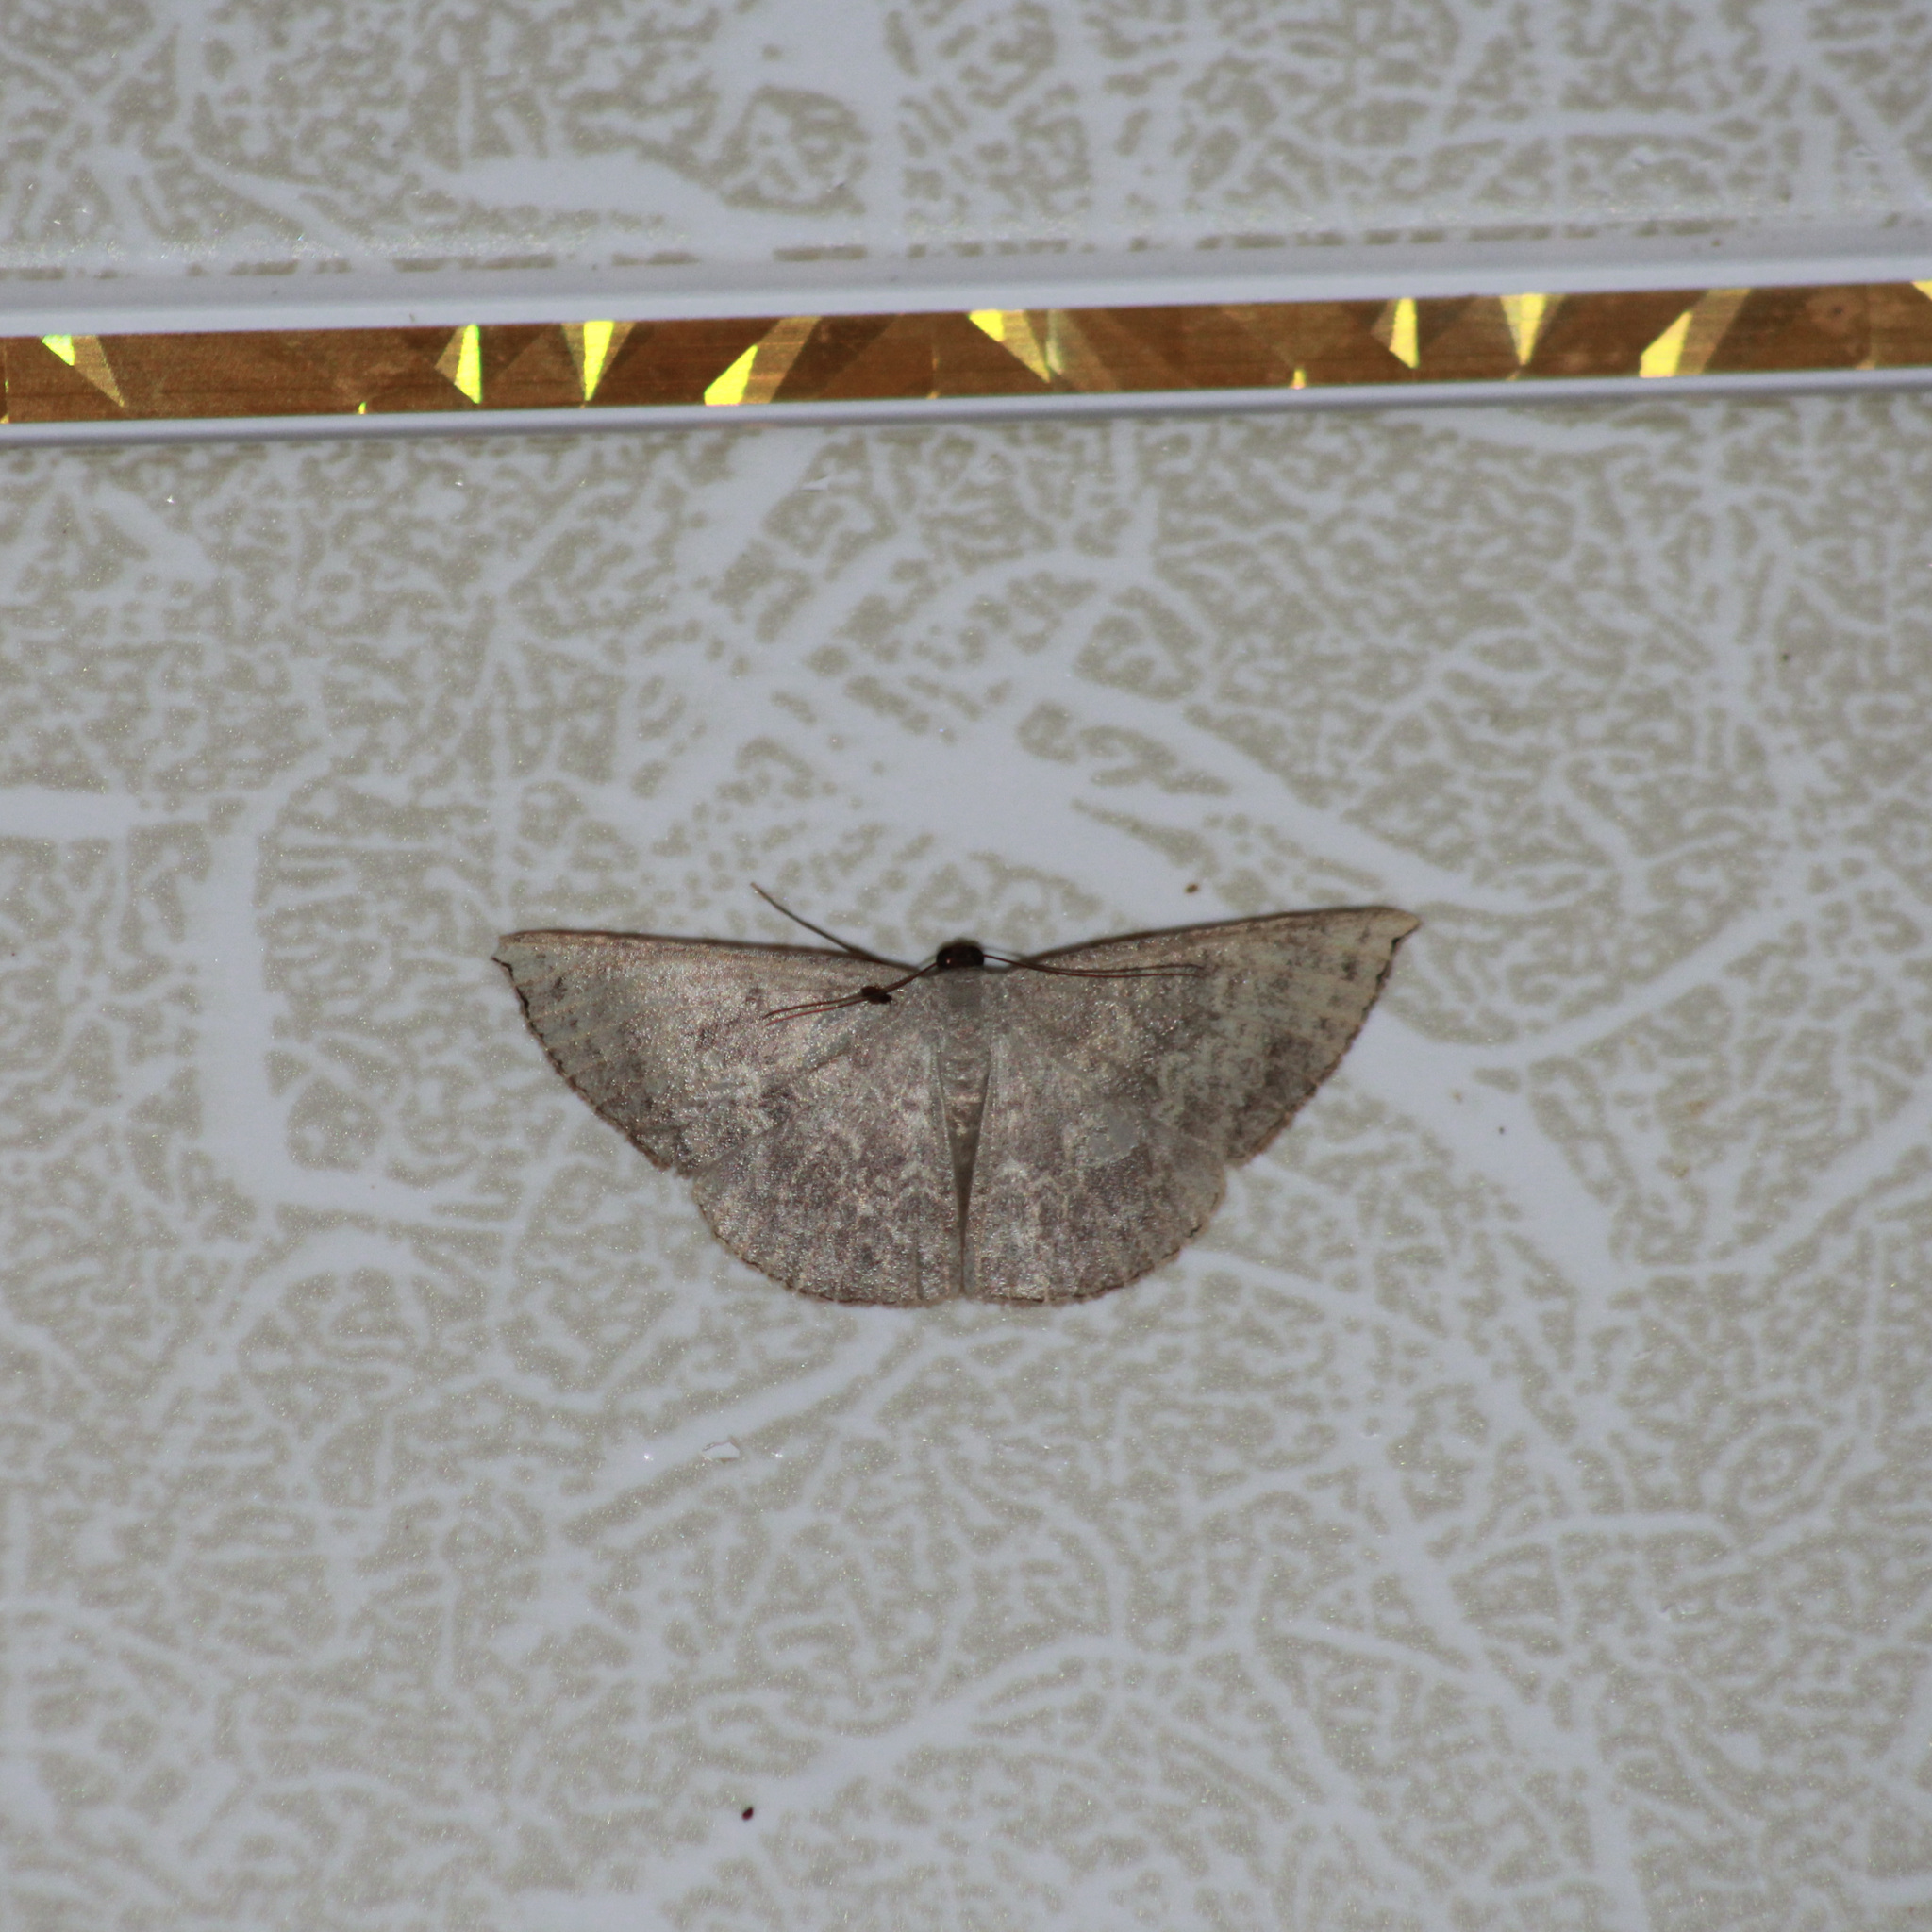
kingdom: Animalia
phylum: Arthropoda
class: Insecta
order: Lepidoptera
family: Geometridae
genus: Pycnoneura
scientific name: Pycnoneura protrusilinea
